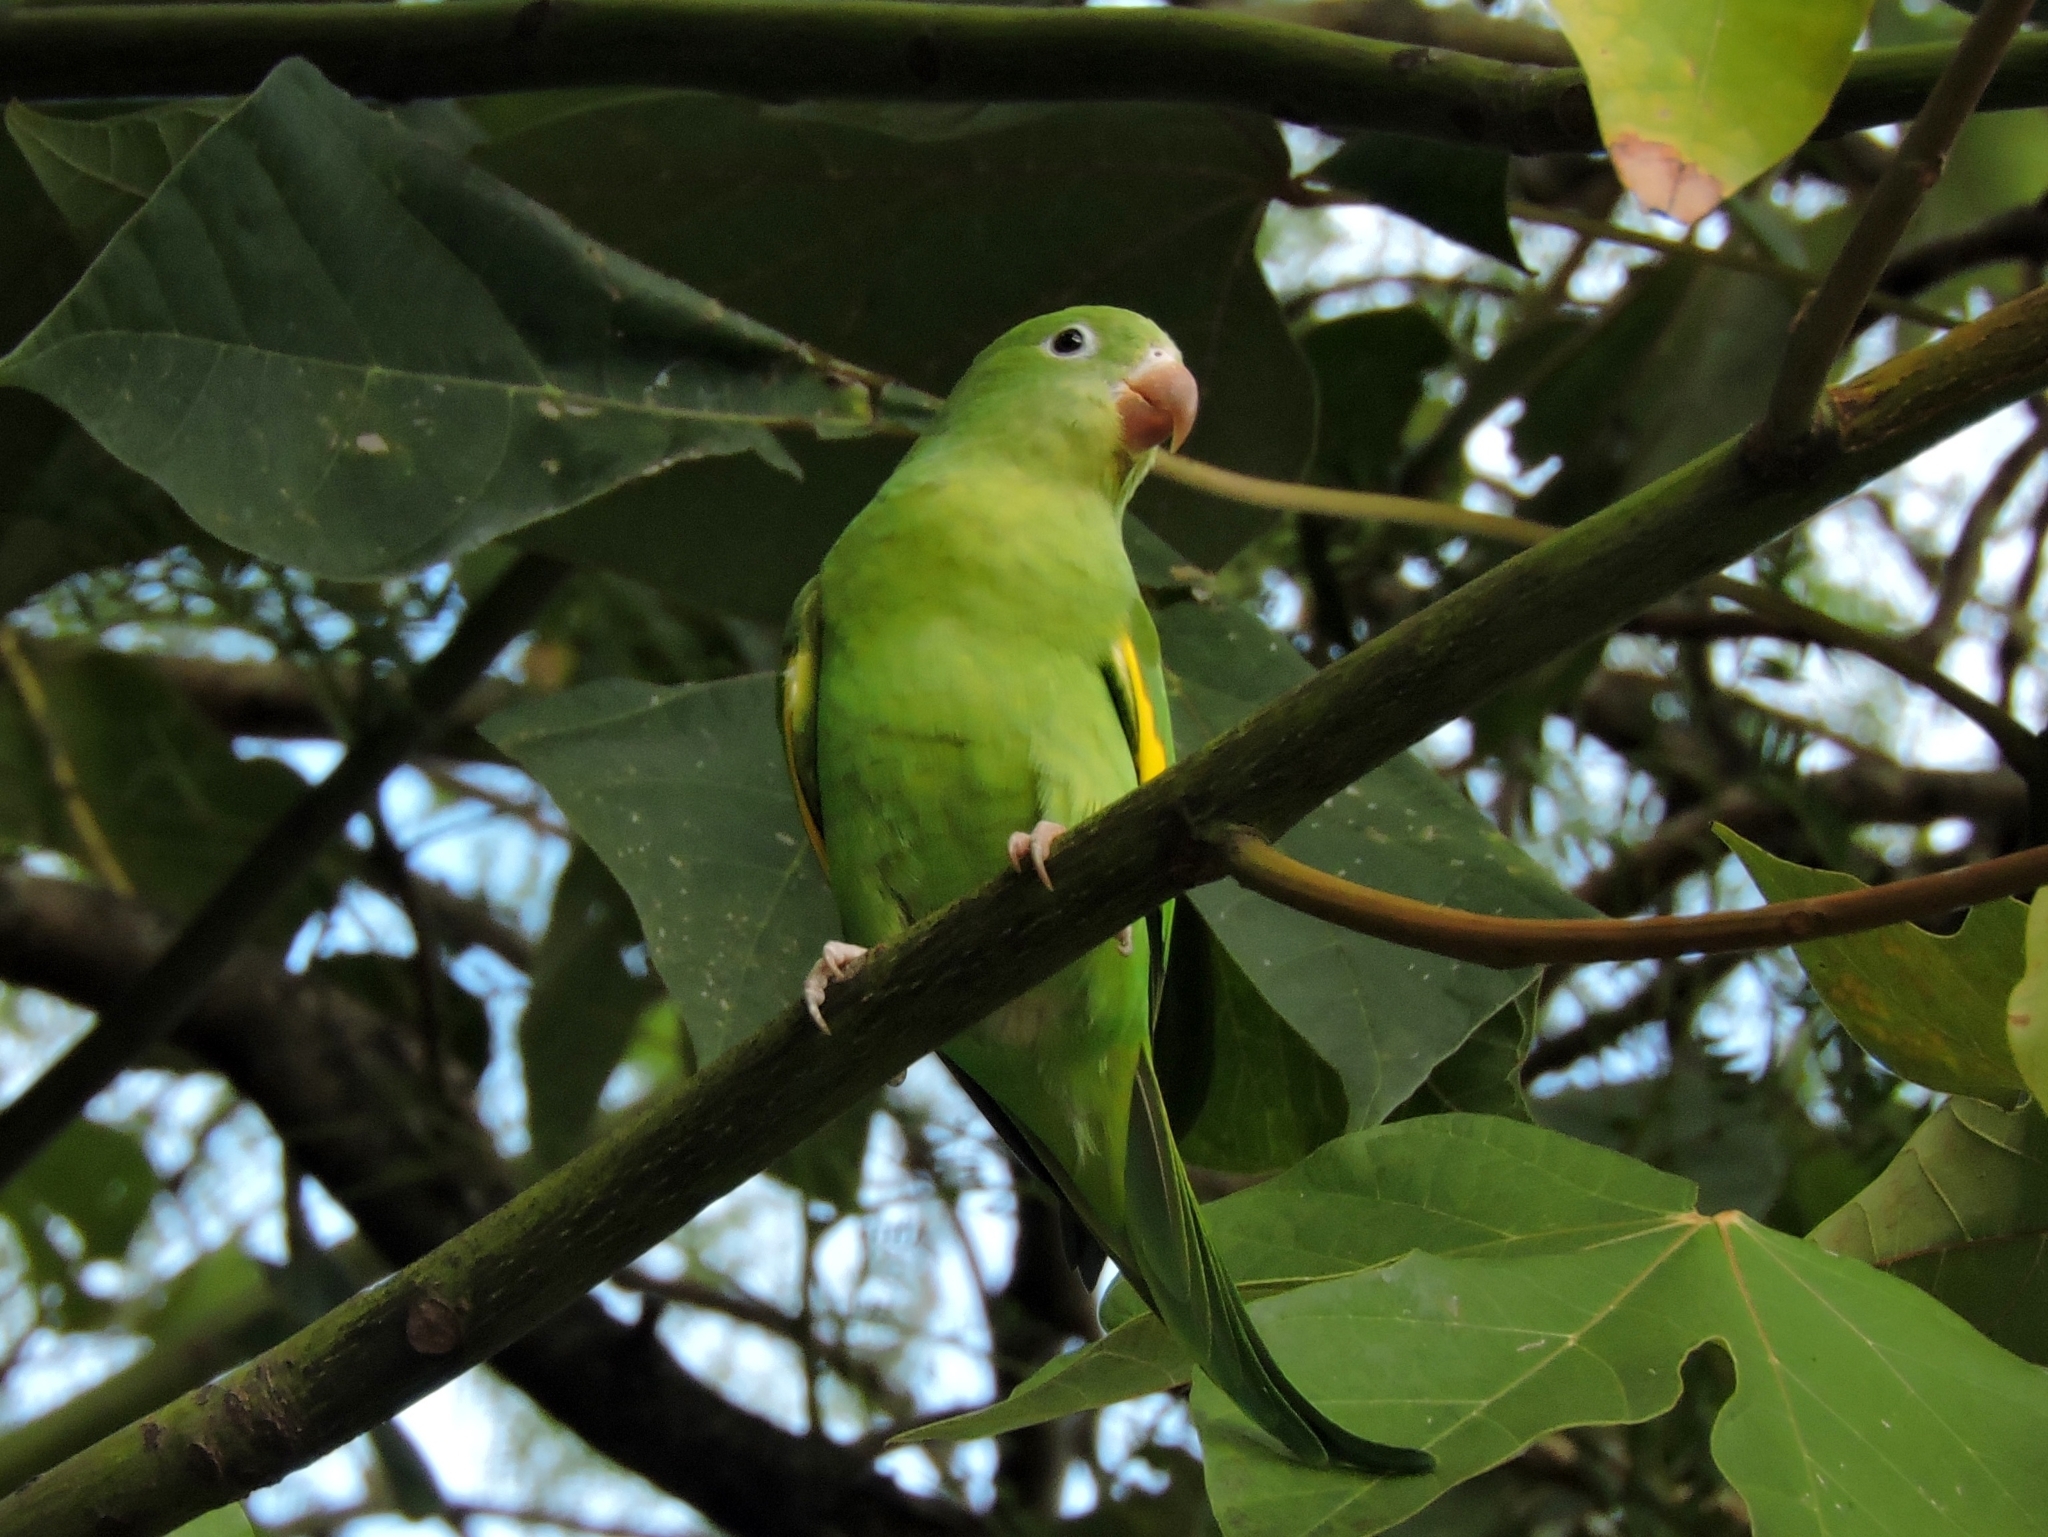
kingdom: Animalia
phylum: Chordata
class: Aves
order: Psittaciformes
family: Psittacidae
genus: Brotogeris
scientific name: Brotogeris chiriri
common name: Yellow-chevroned parakeet
